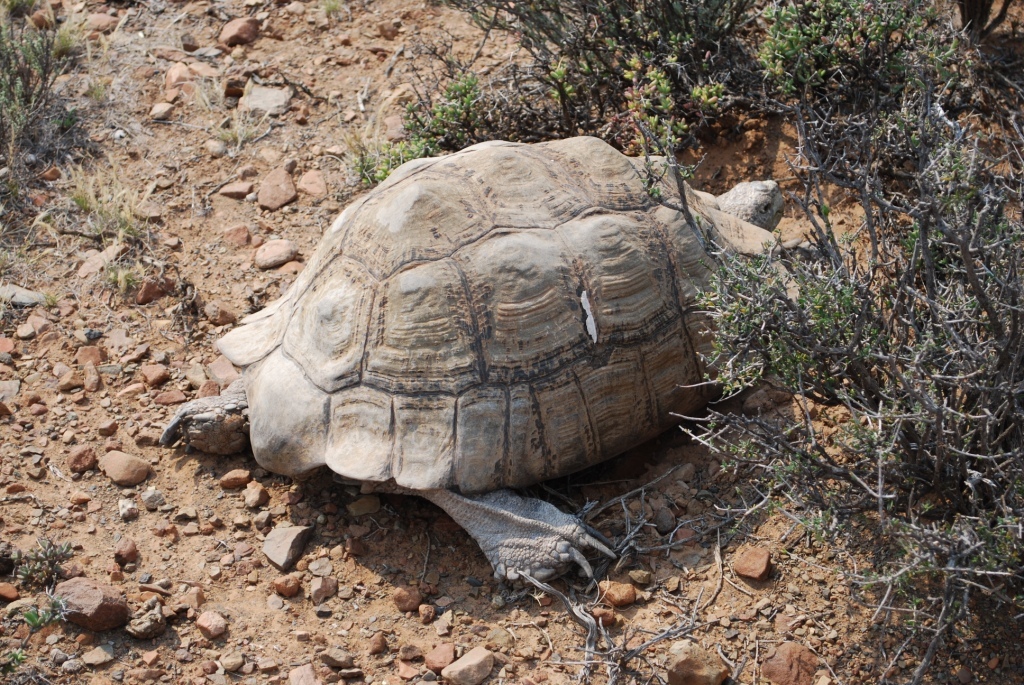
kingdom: Animalia
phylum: Chordata
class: Testudines
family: Testudinidae
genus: Stigmochelys
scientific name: Stigmochelys pardalis
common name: Leopard tortoise
